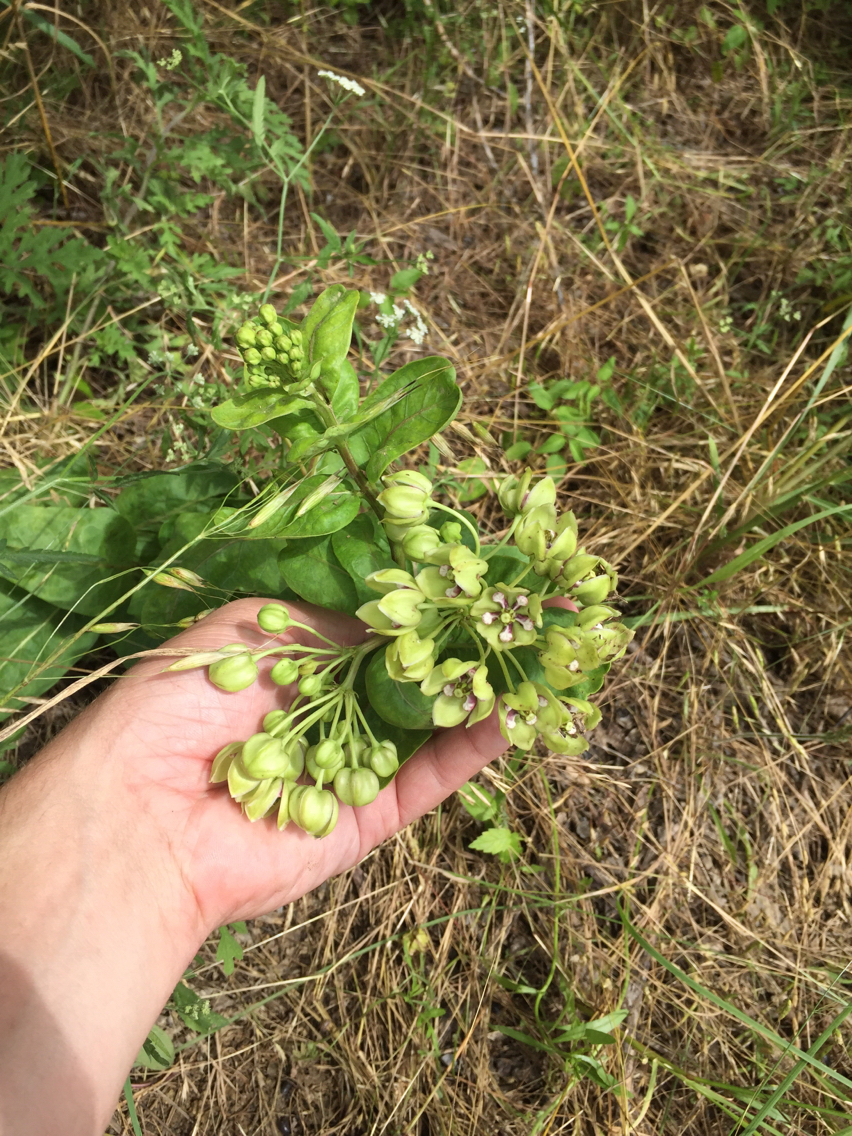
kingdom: Plantae
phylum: Tracheophyta
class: Magnoliopsida
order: Gentianales
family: Apocynaceae
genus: Asclepias
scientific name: Asclepias viridis
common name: Antelope-horns
